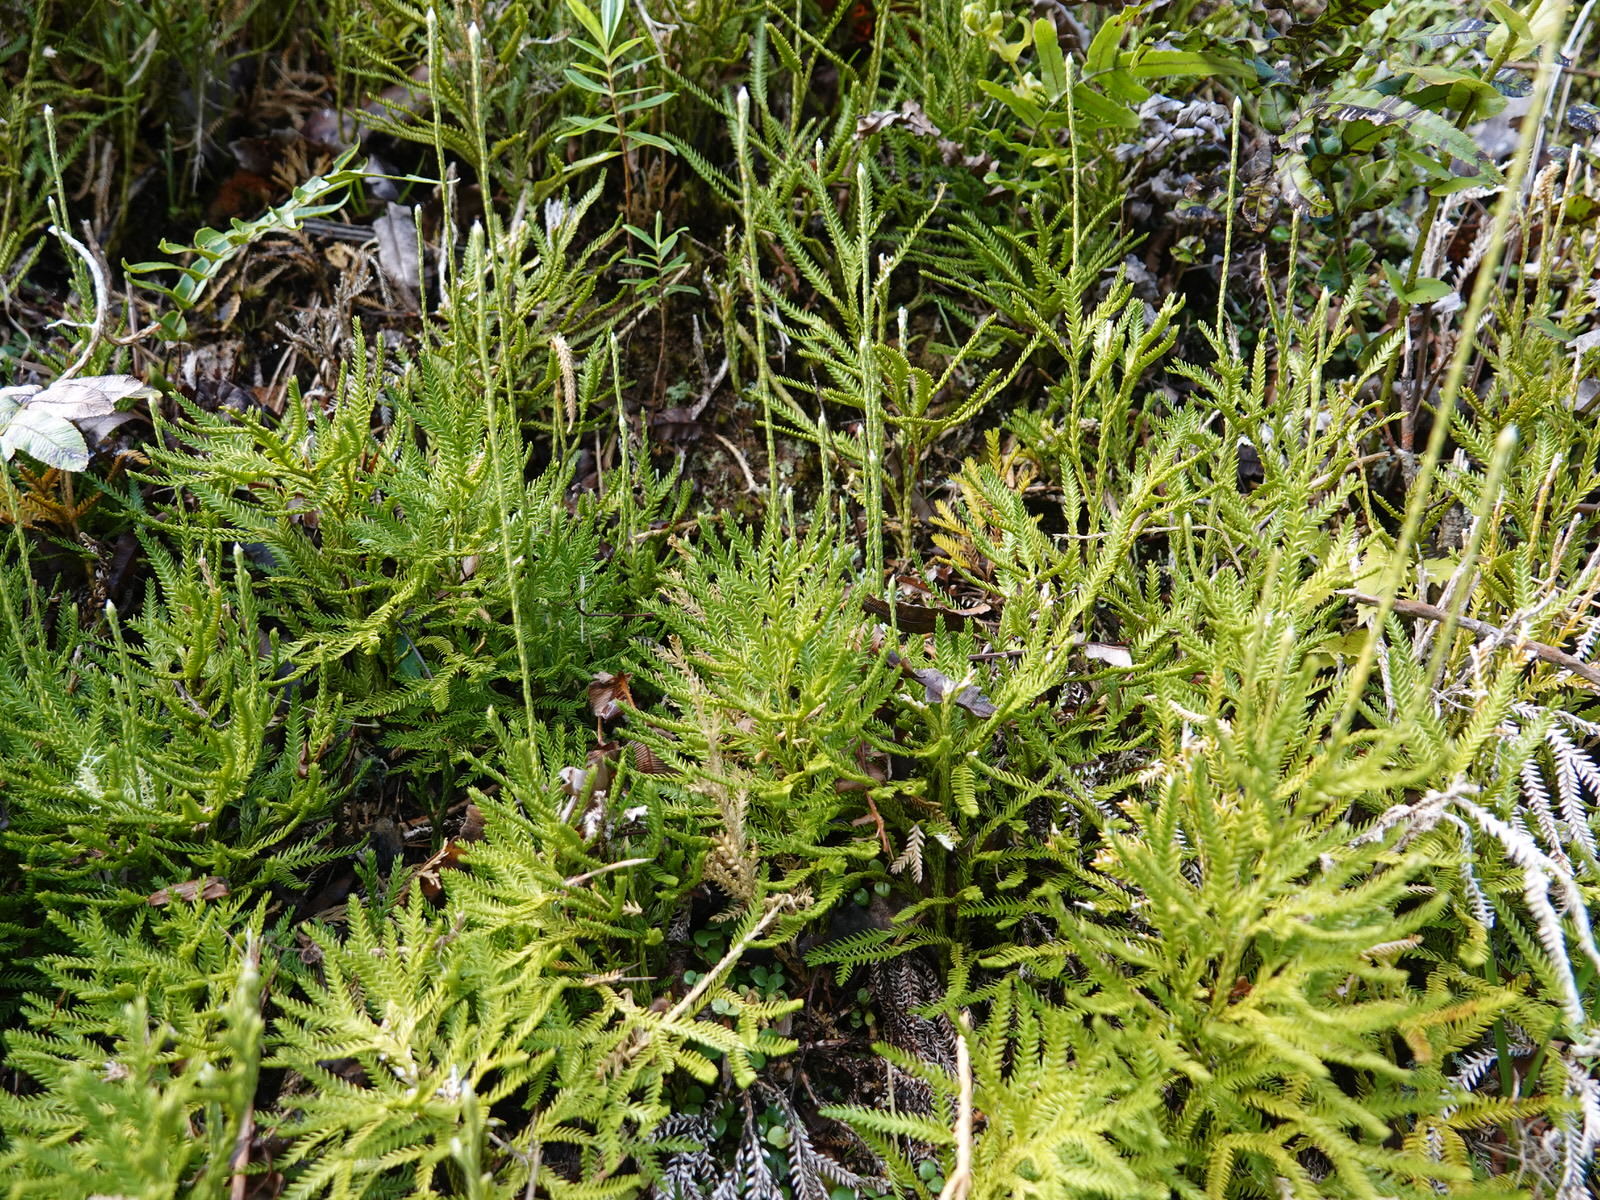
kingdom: Plantae
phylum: Tracheophyta
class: Lycopodiopsida
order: Lycopodiales
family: Lycopodiaceae
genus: Diphasium
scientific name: Diphasium scariosum
